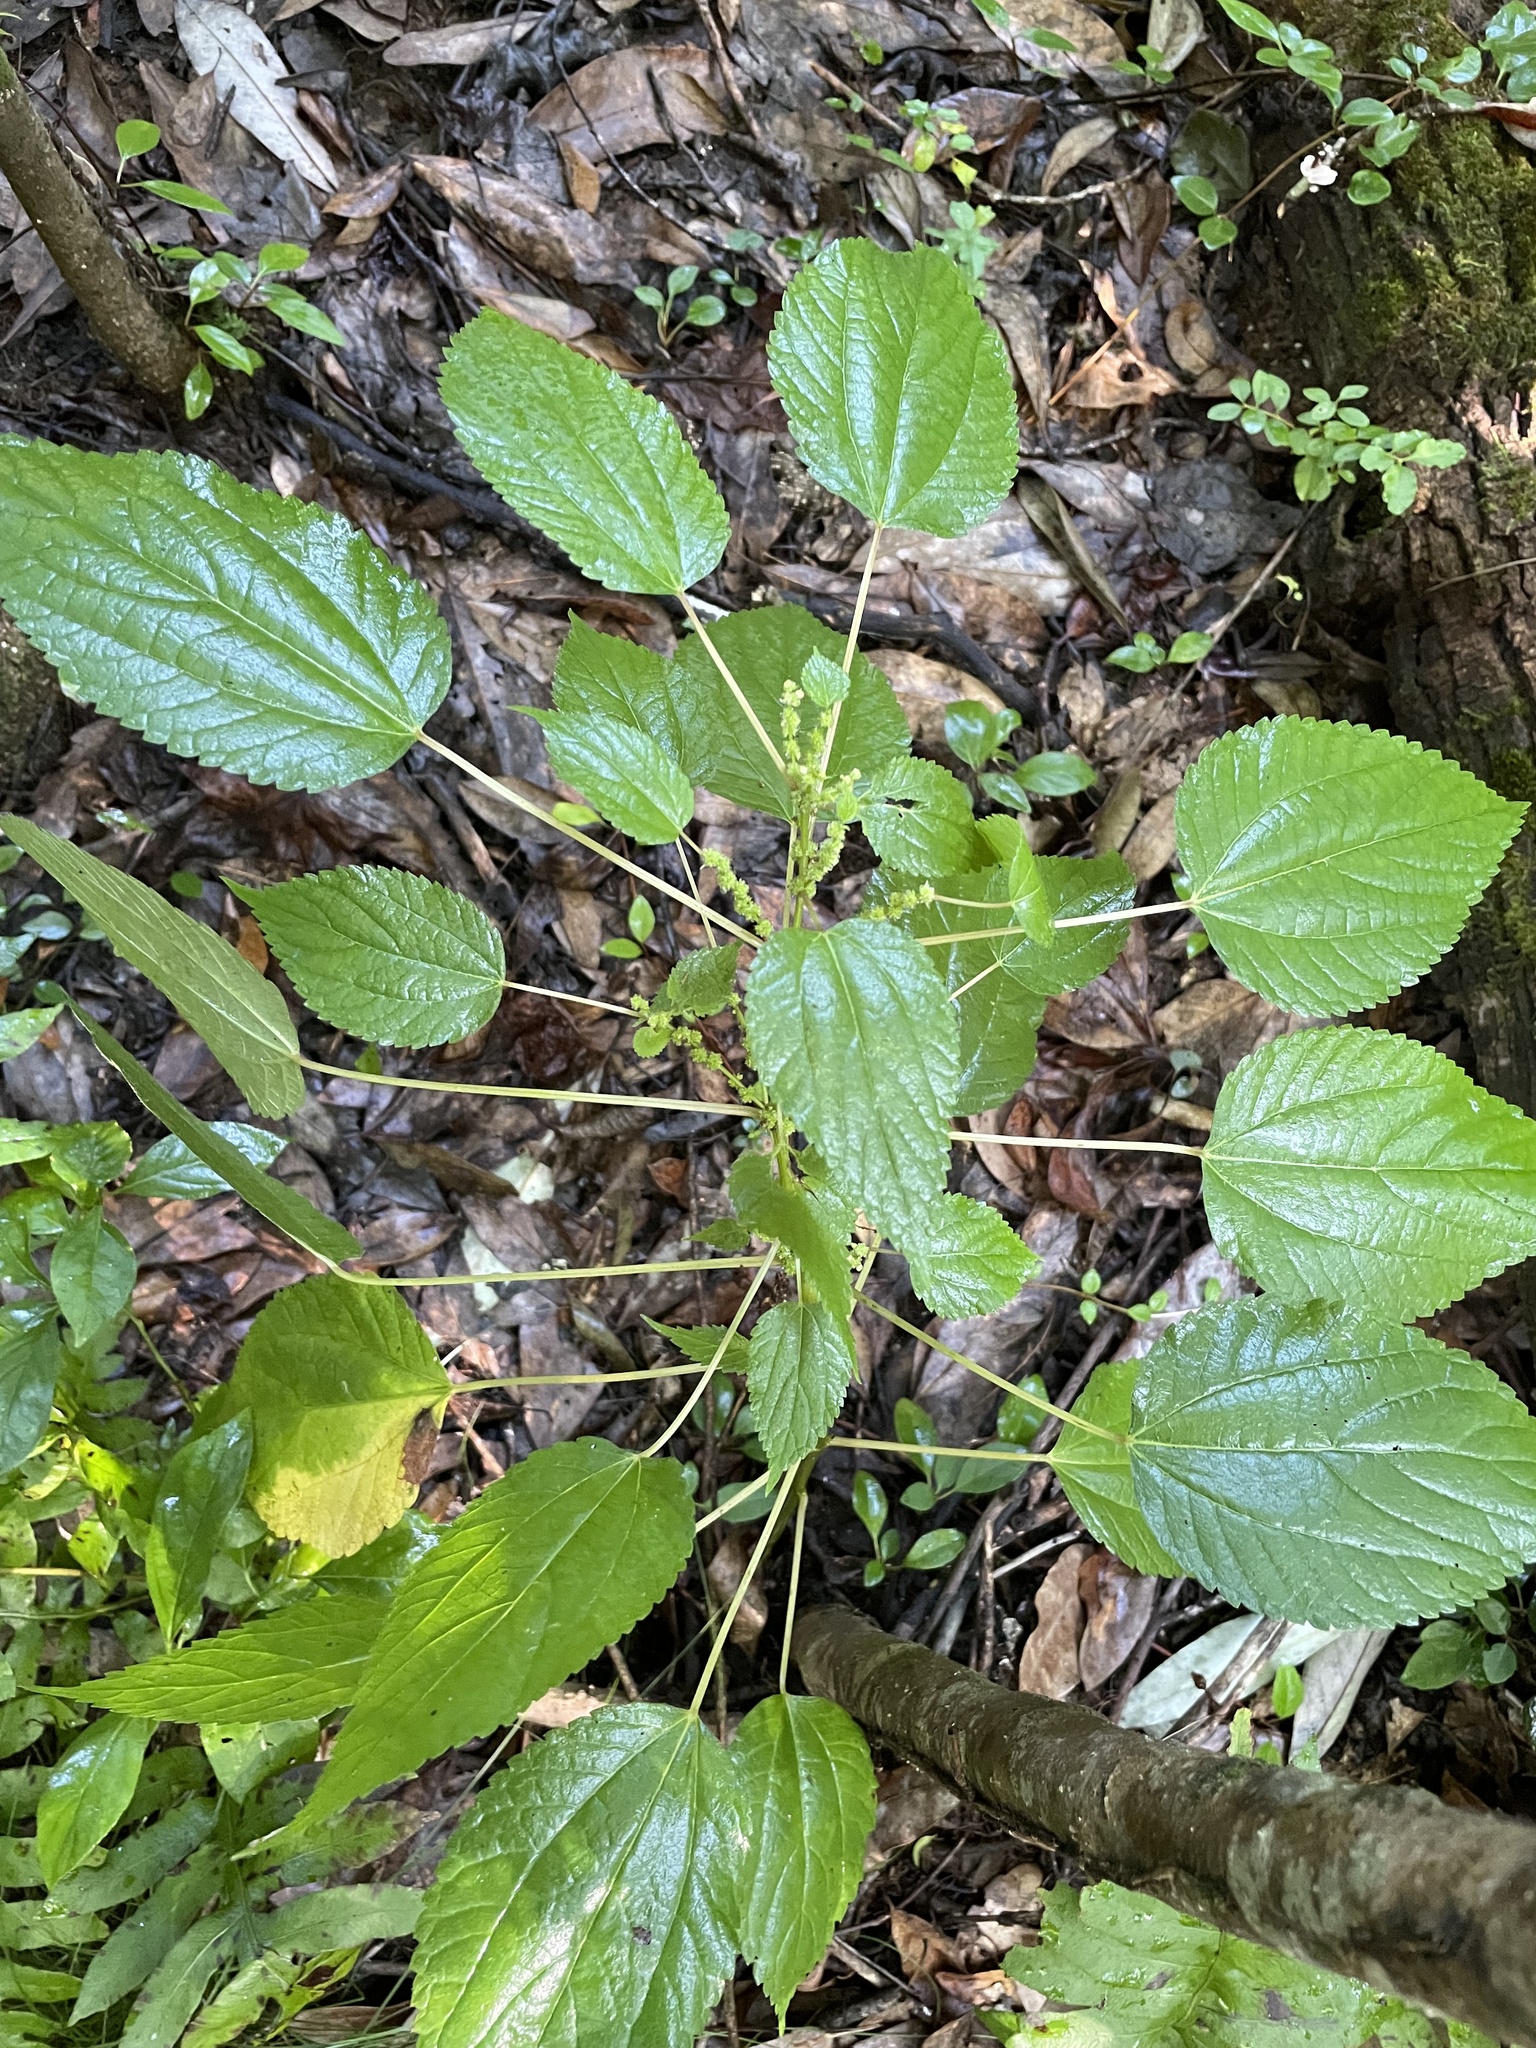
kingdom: Plantae
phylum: Tracheophyta
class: Magnoliopsida
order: Rosales
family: Urticaceae
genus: Boehmeria
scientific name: Boehmeria cylindrica
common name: Bog-hemp
